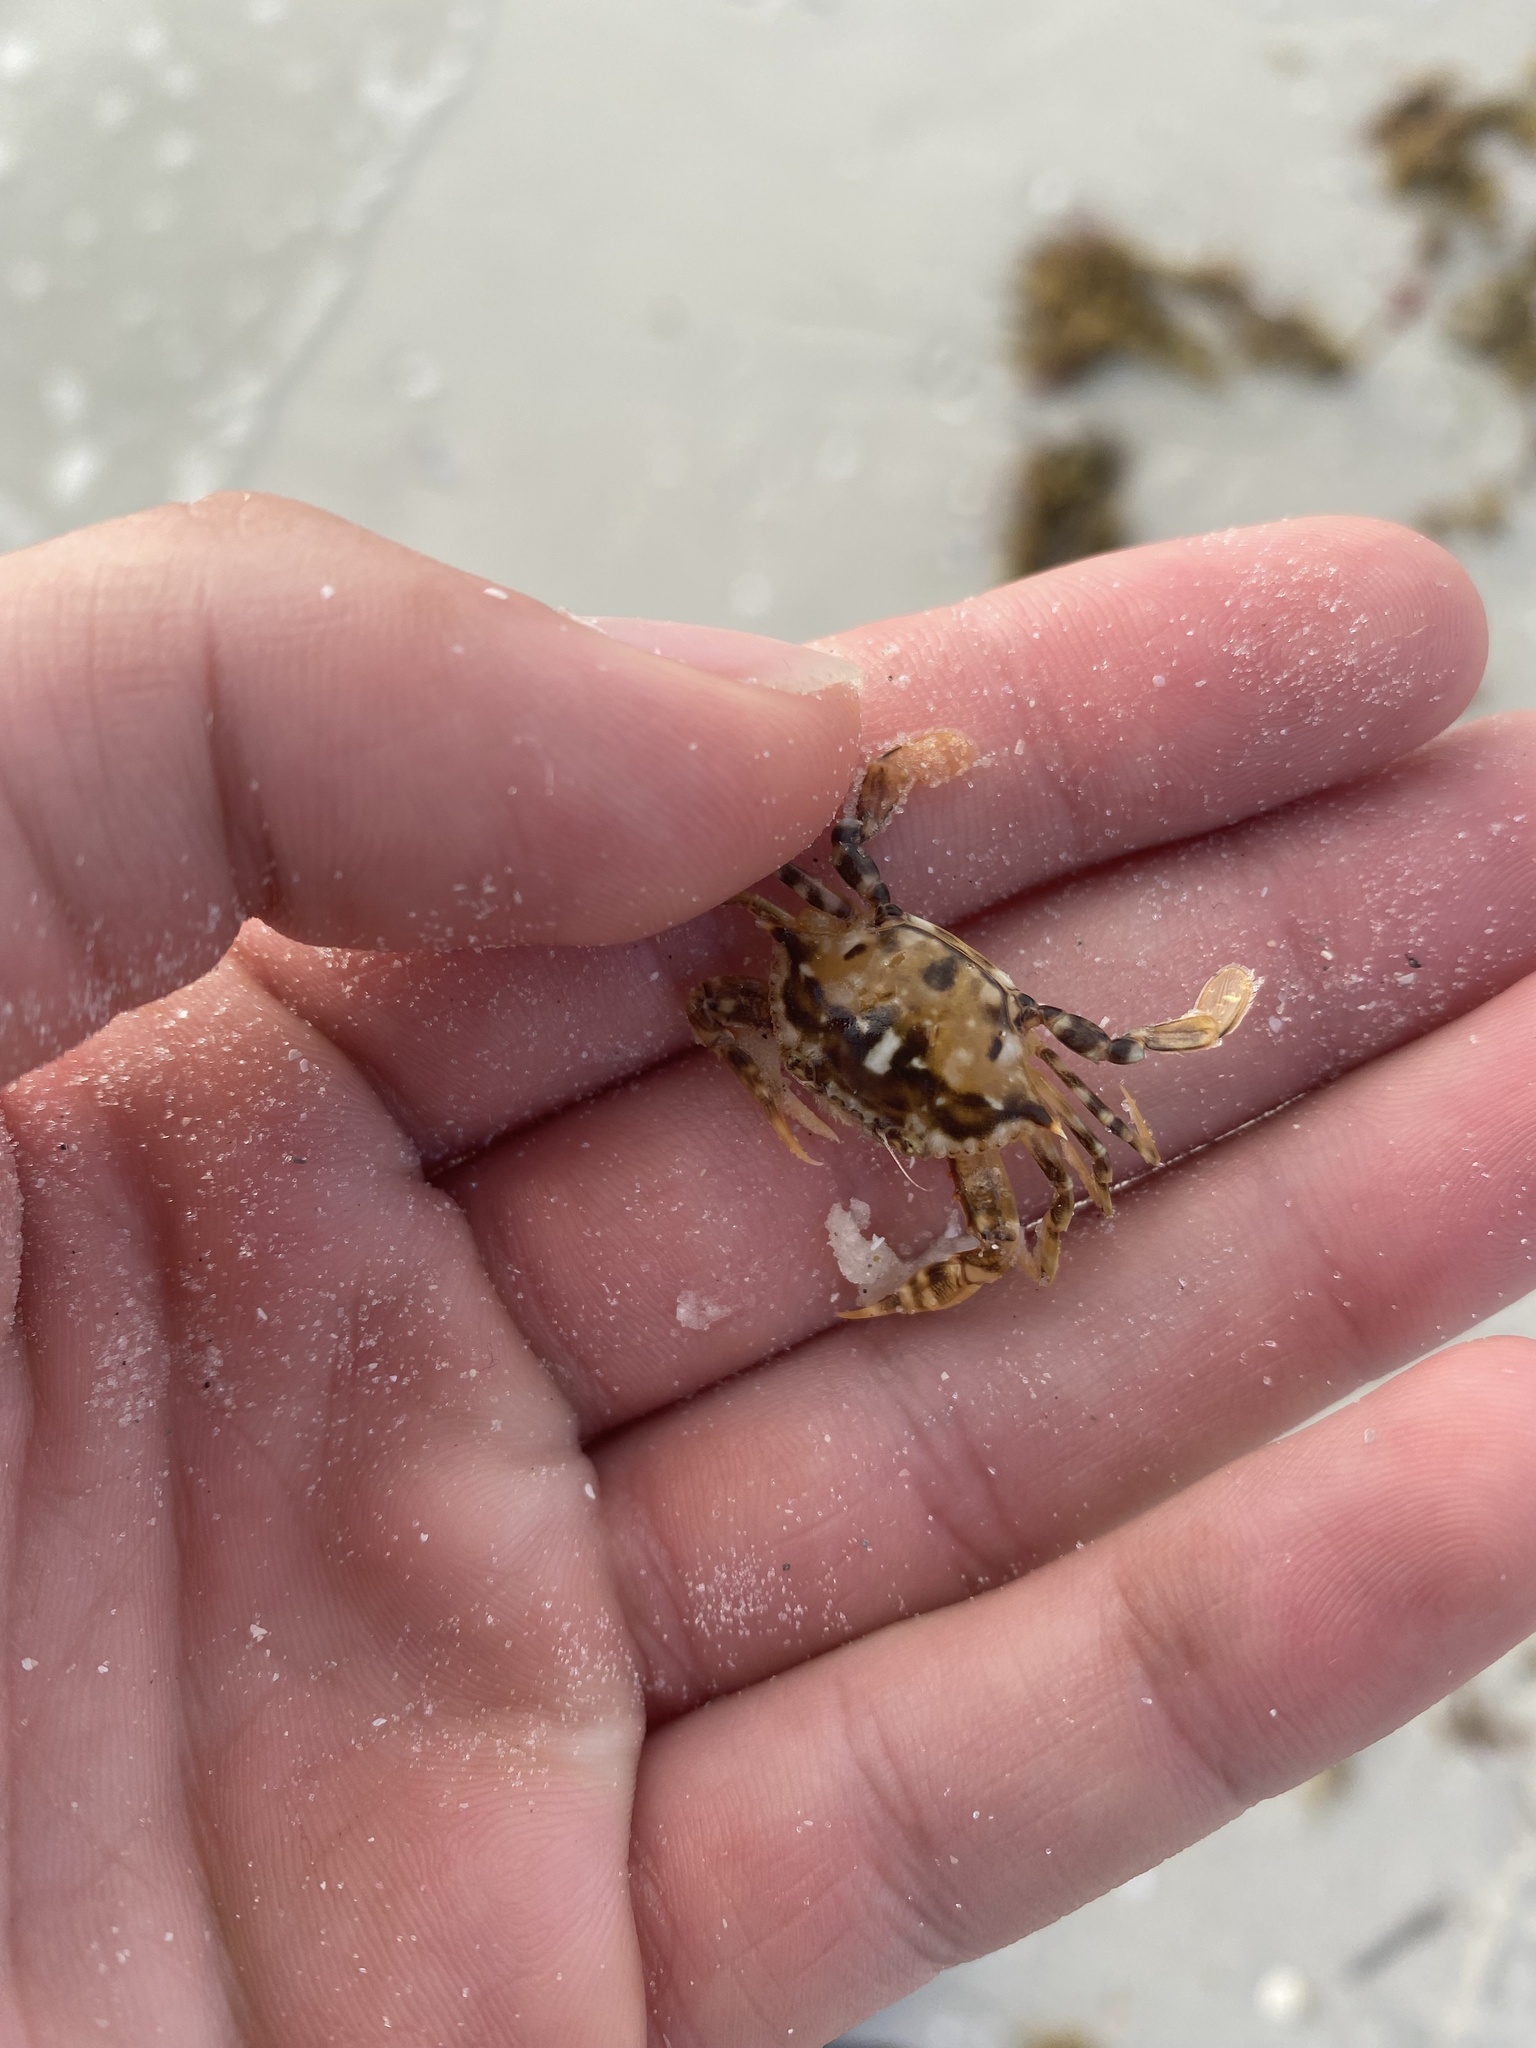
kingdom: Animalia
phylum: Arthropoda
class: Malacostraca
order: Decapoda
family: Portunidae
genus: Portunus
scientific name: Portunus sayi
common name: Sargassum crab
